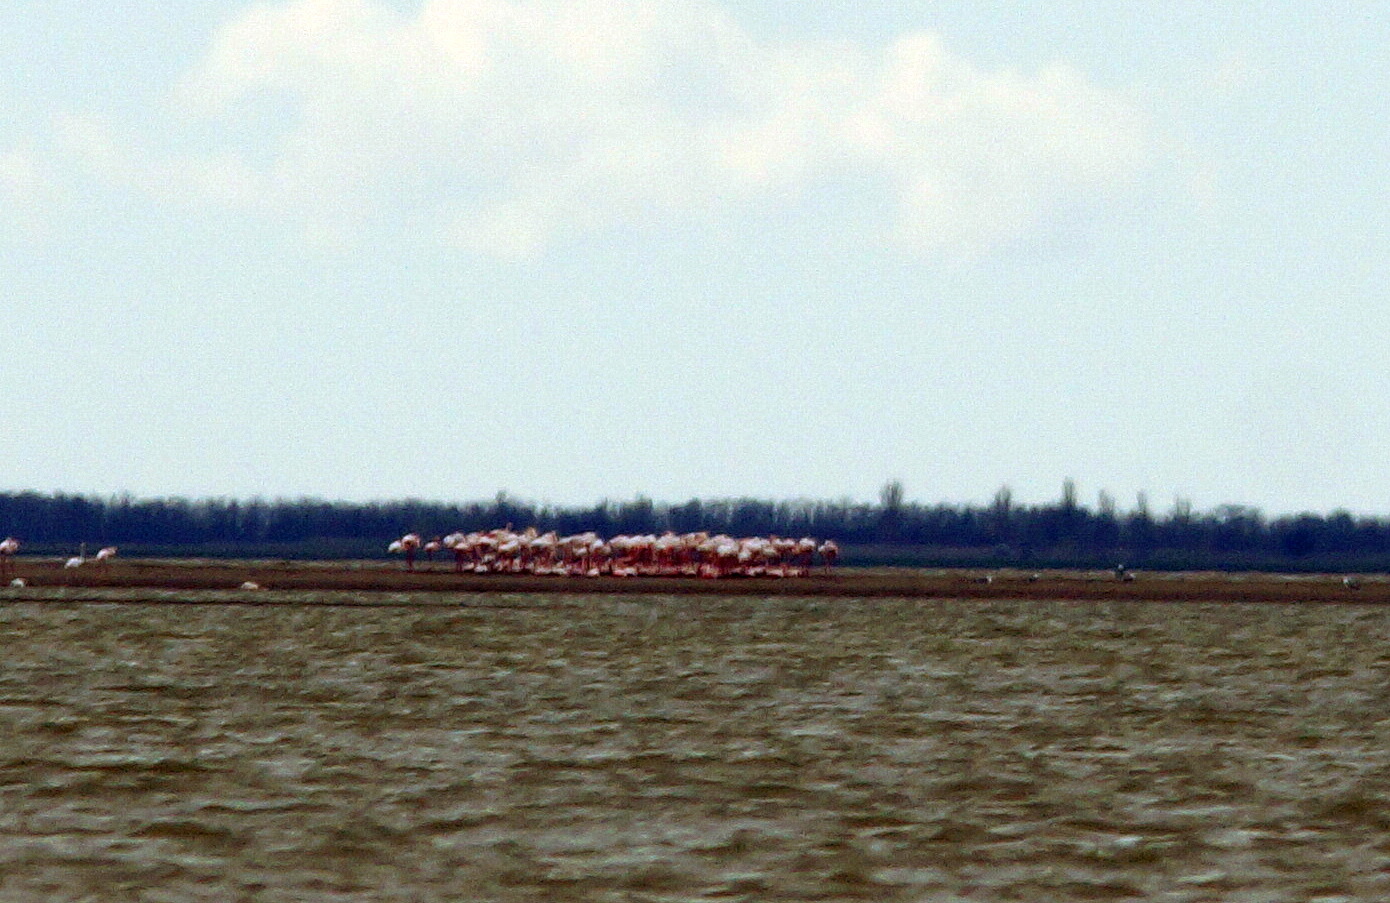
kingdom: Animalia
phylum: Chordata
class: Aves
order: Phoenicopteriformes
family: Phoenicopteridae
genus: Phoenicopterus
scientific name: Phoenicopterus roseus
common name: Greater flamingo
